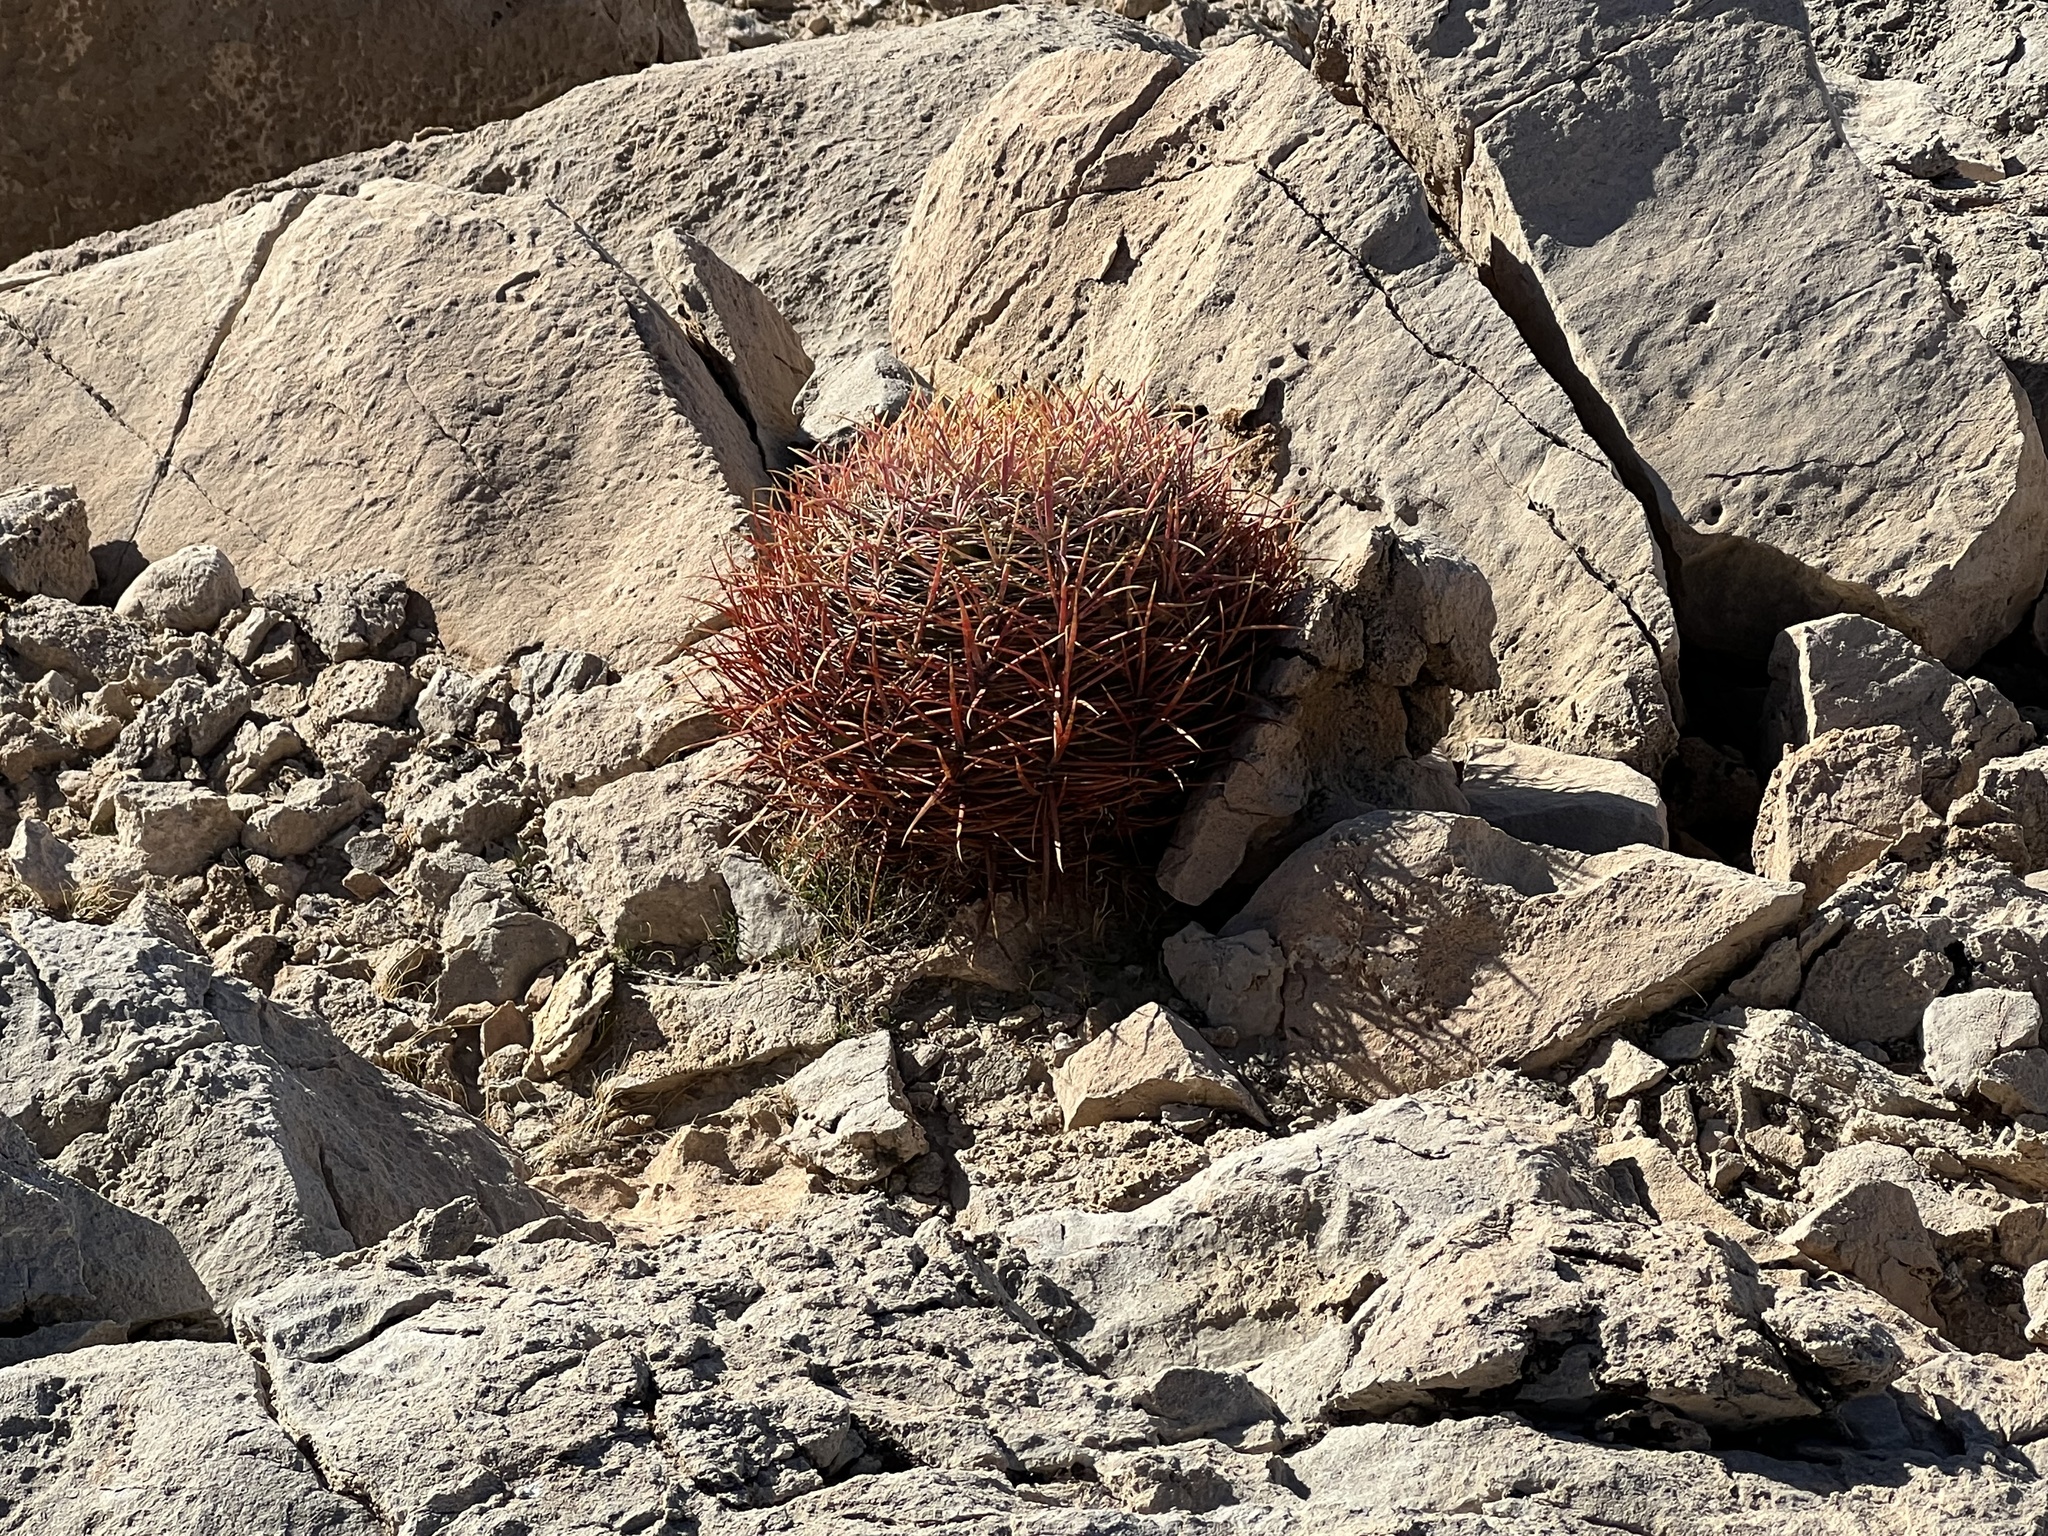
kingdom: Plantae
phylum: Tracheophyta
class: Magnoliopsida
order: Caryophyllales
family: Cactaceae
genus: Ferocactus
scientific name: Ferocactus cylindraceus
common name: California barrel cactus
